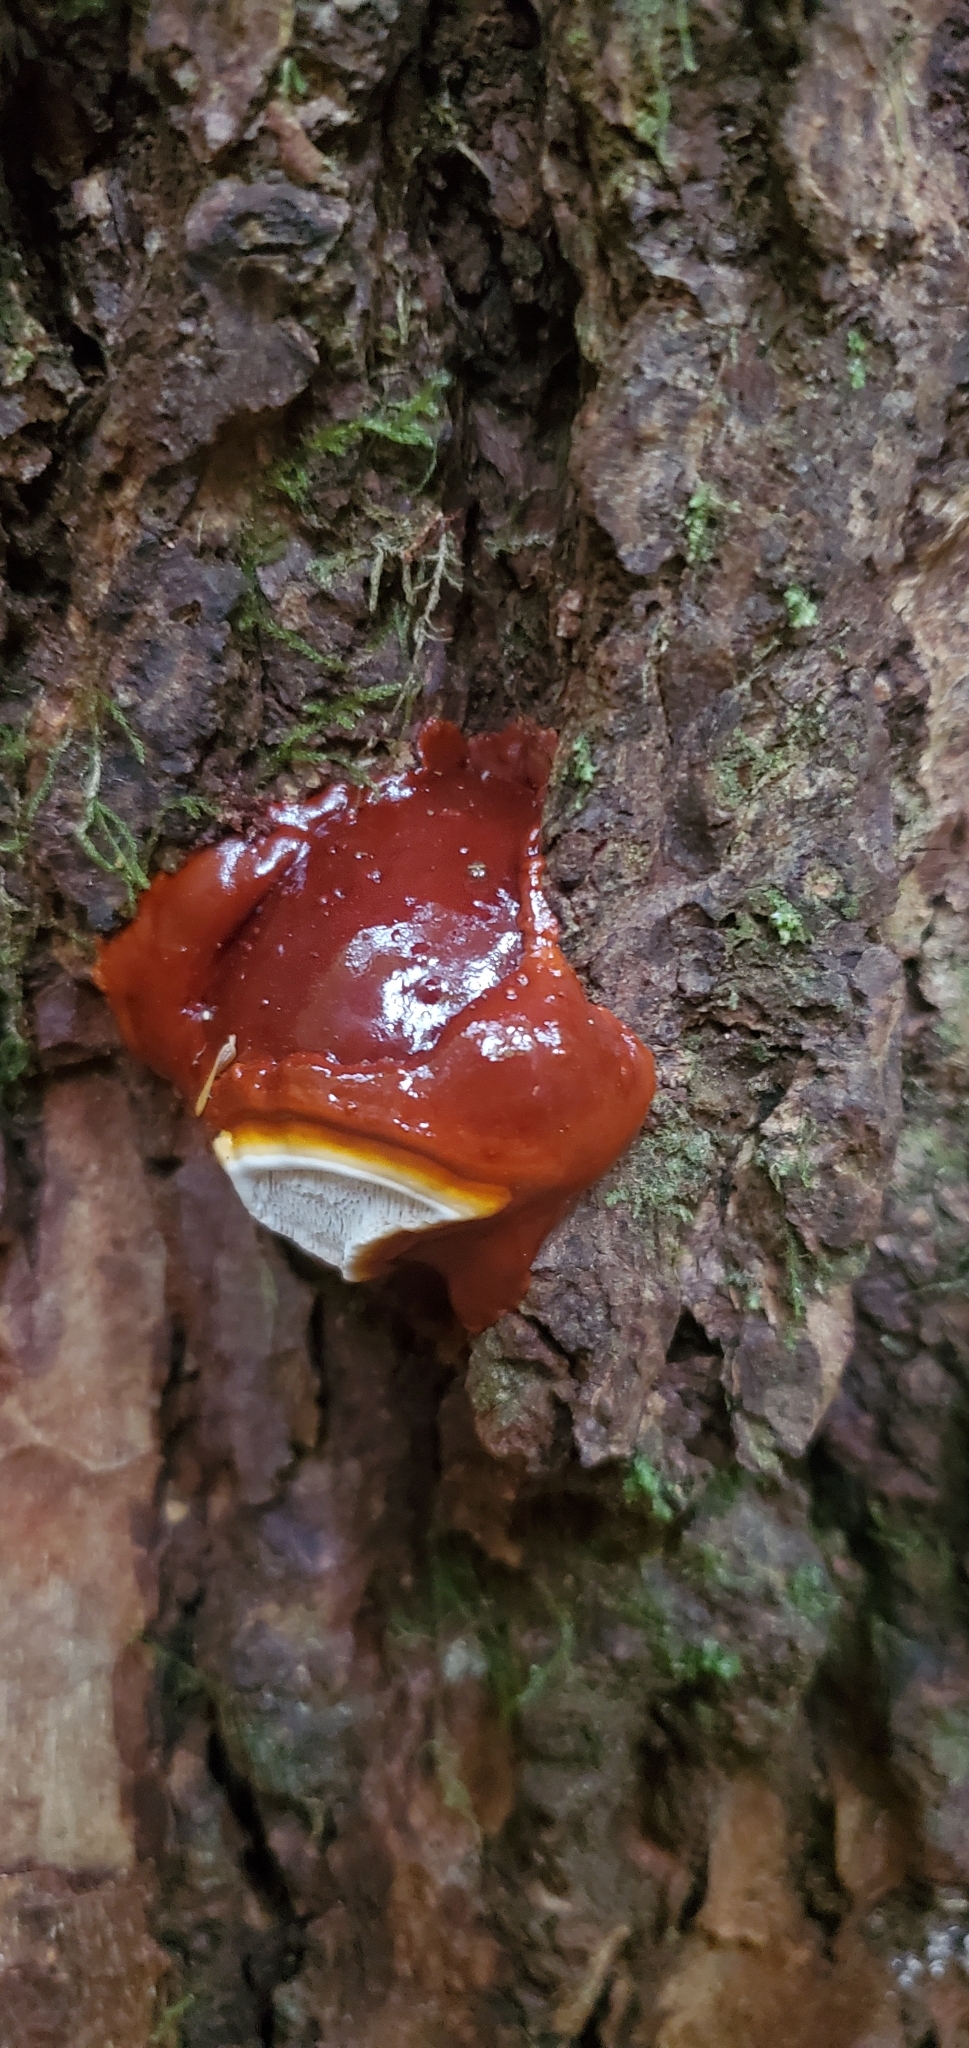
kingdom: Fungi
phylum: Basidiomycota
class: Agaricomycetes
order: Polyporales
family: Polyporaceae
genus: Ganoderma
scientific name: Ganoderma tsugae
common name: Hemlock varnish shelf
